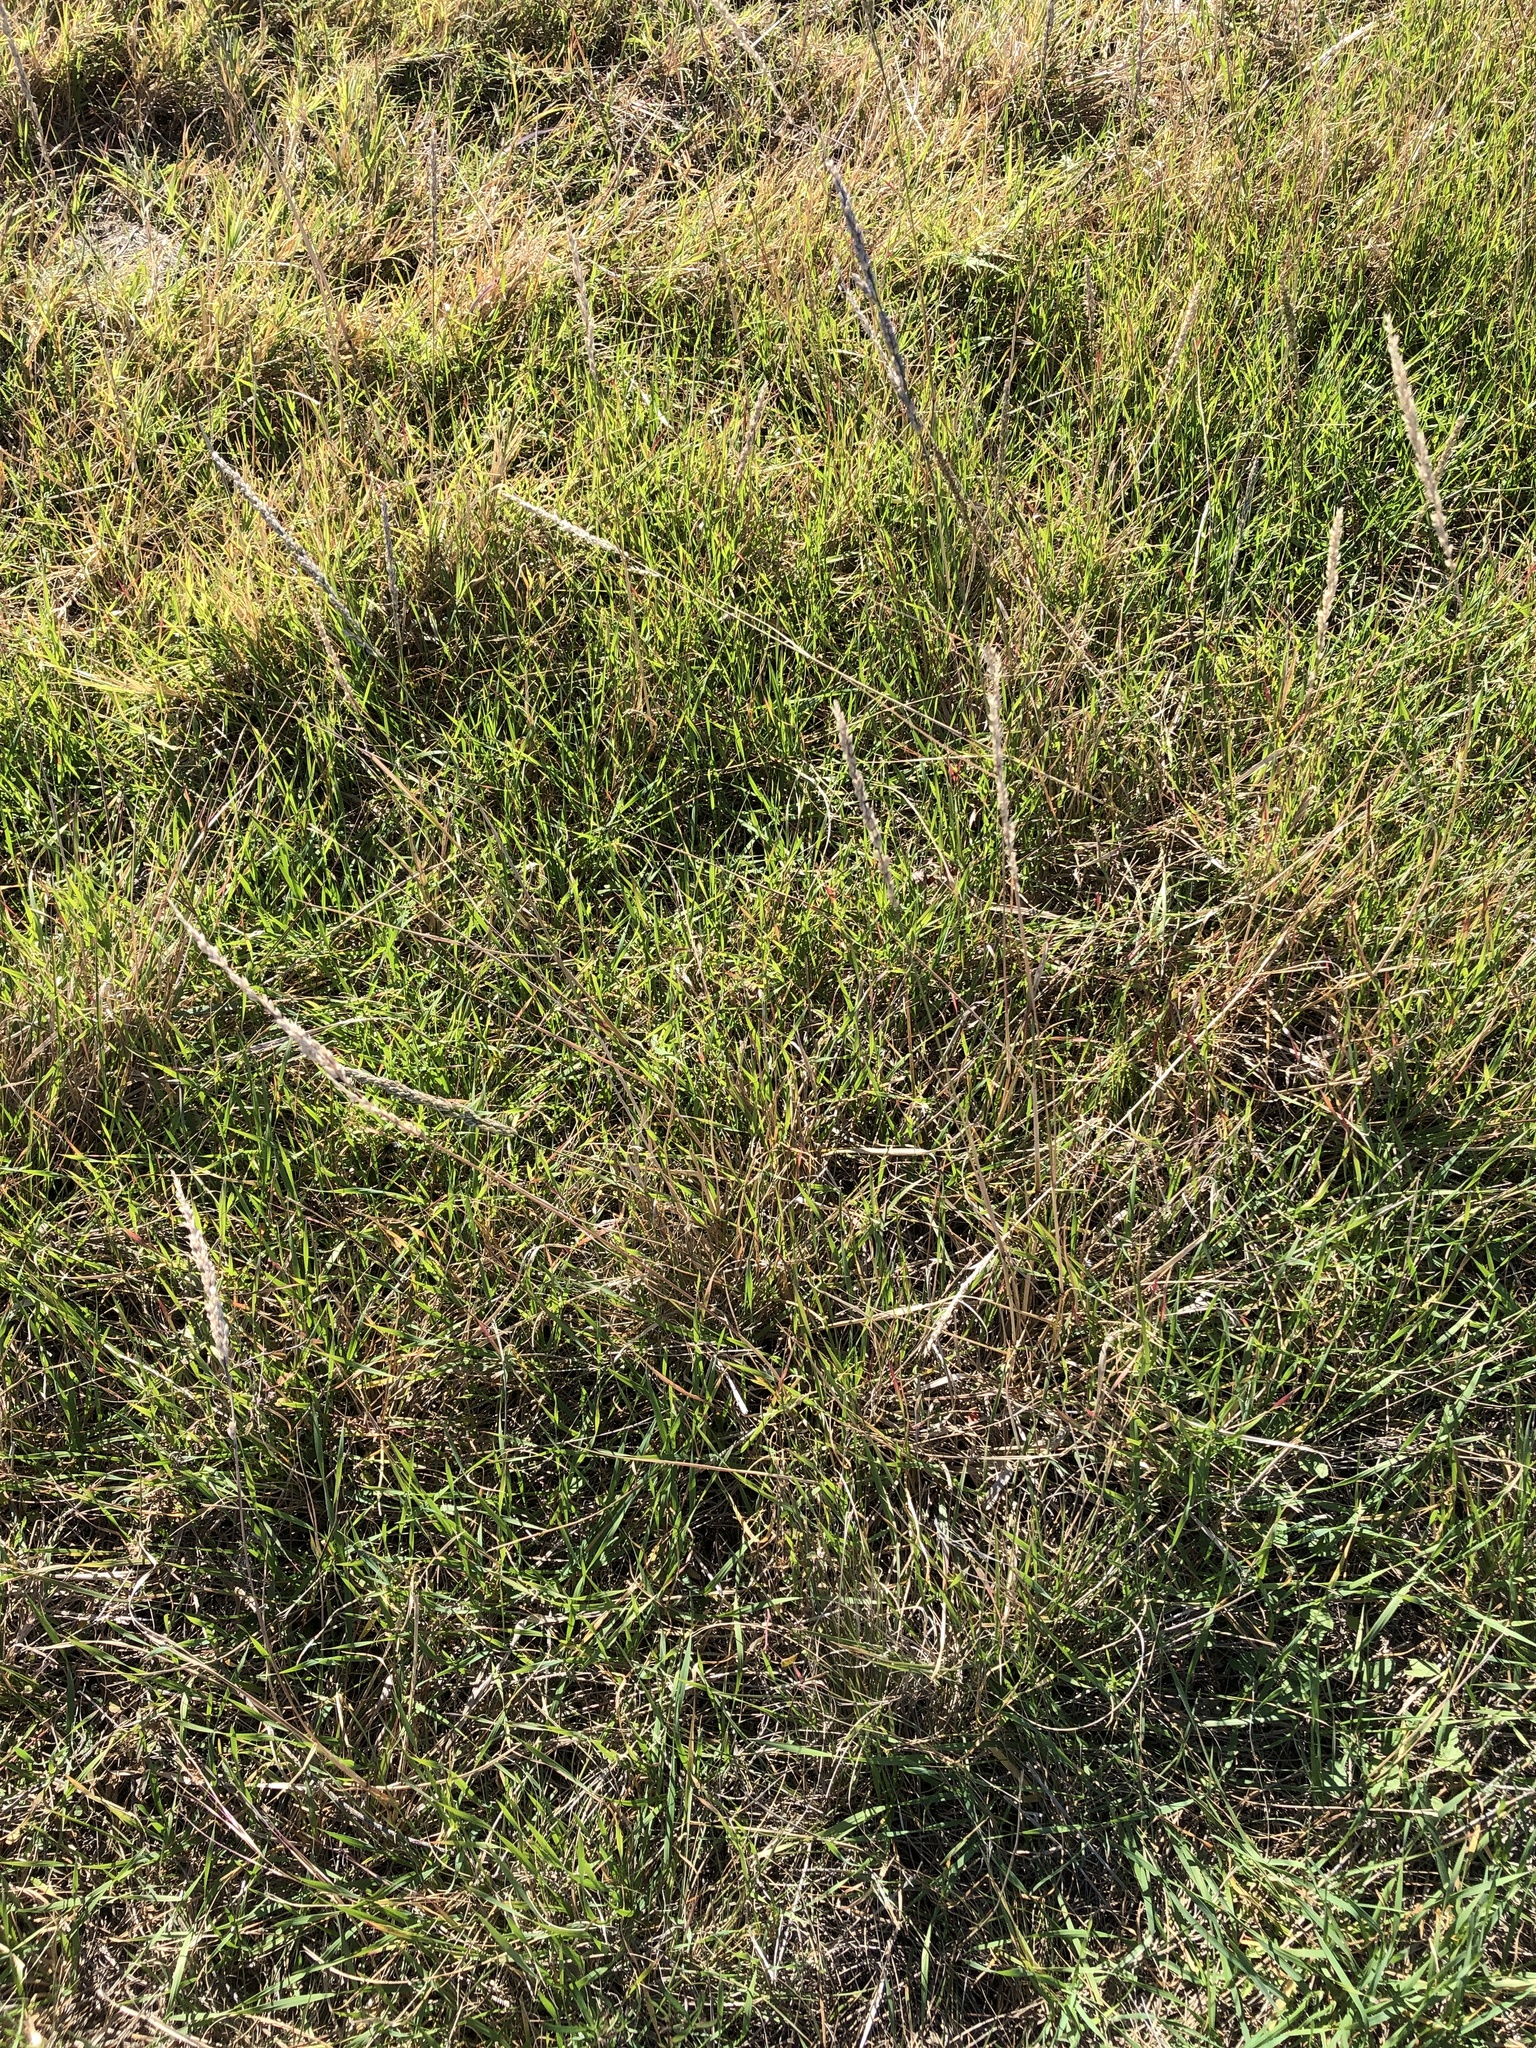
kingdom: Plantae
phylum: Tracheophyta
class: Liliopsida
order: Poales
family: Poaceae
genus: Tridens
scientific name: Tridens albescens
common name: White tridens
